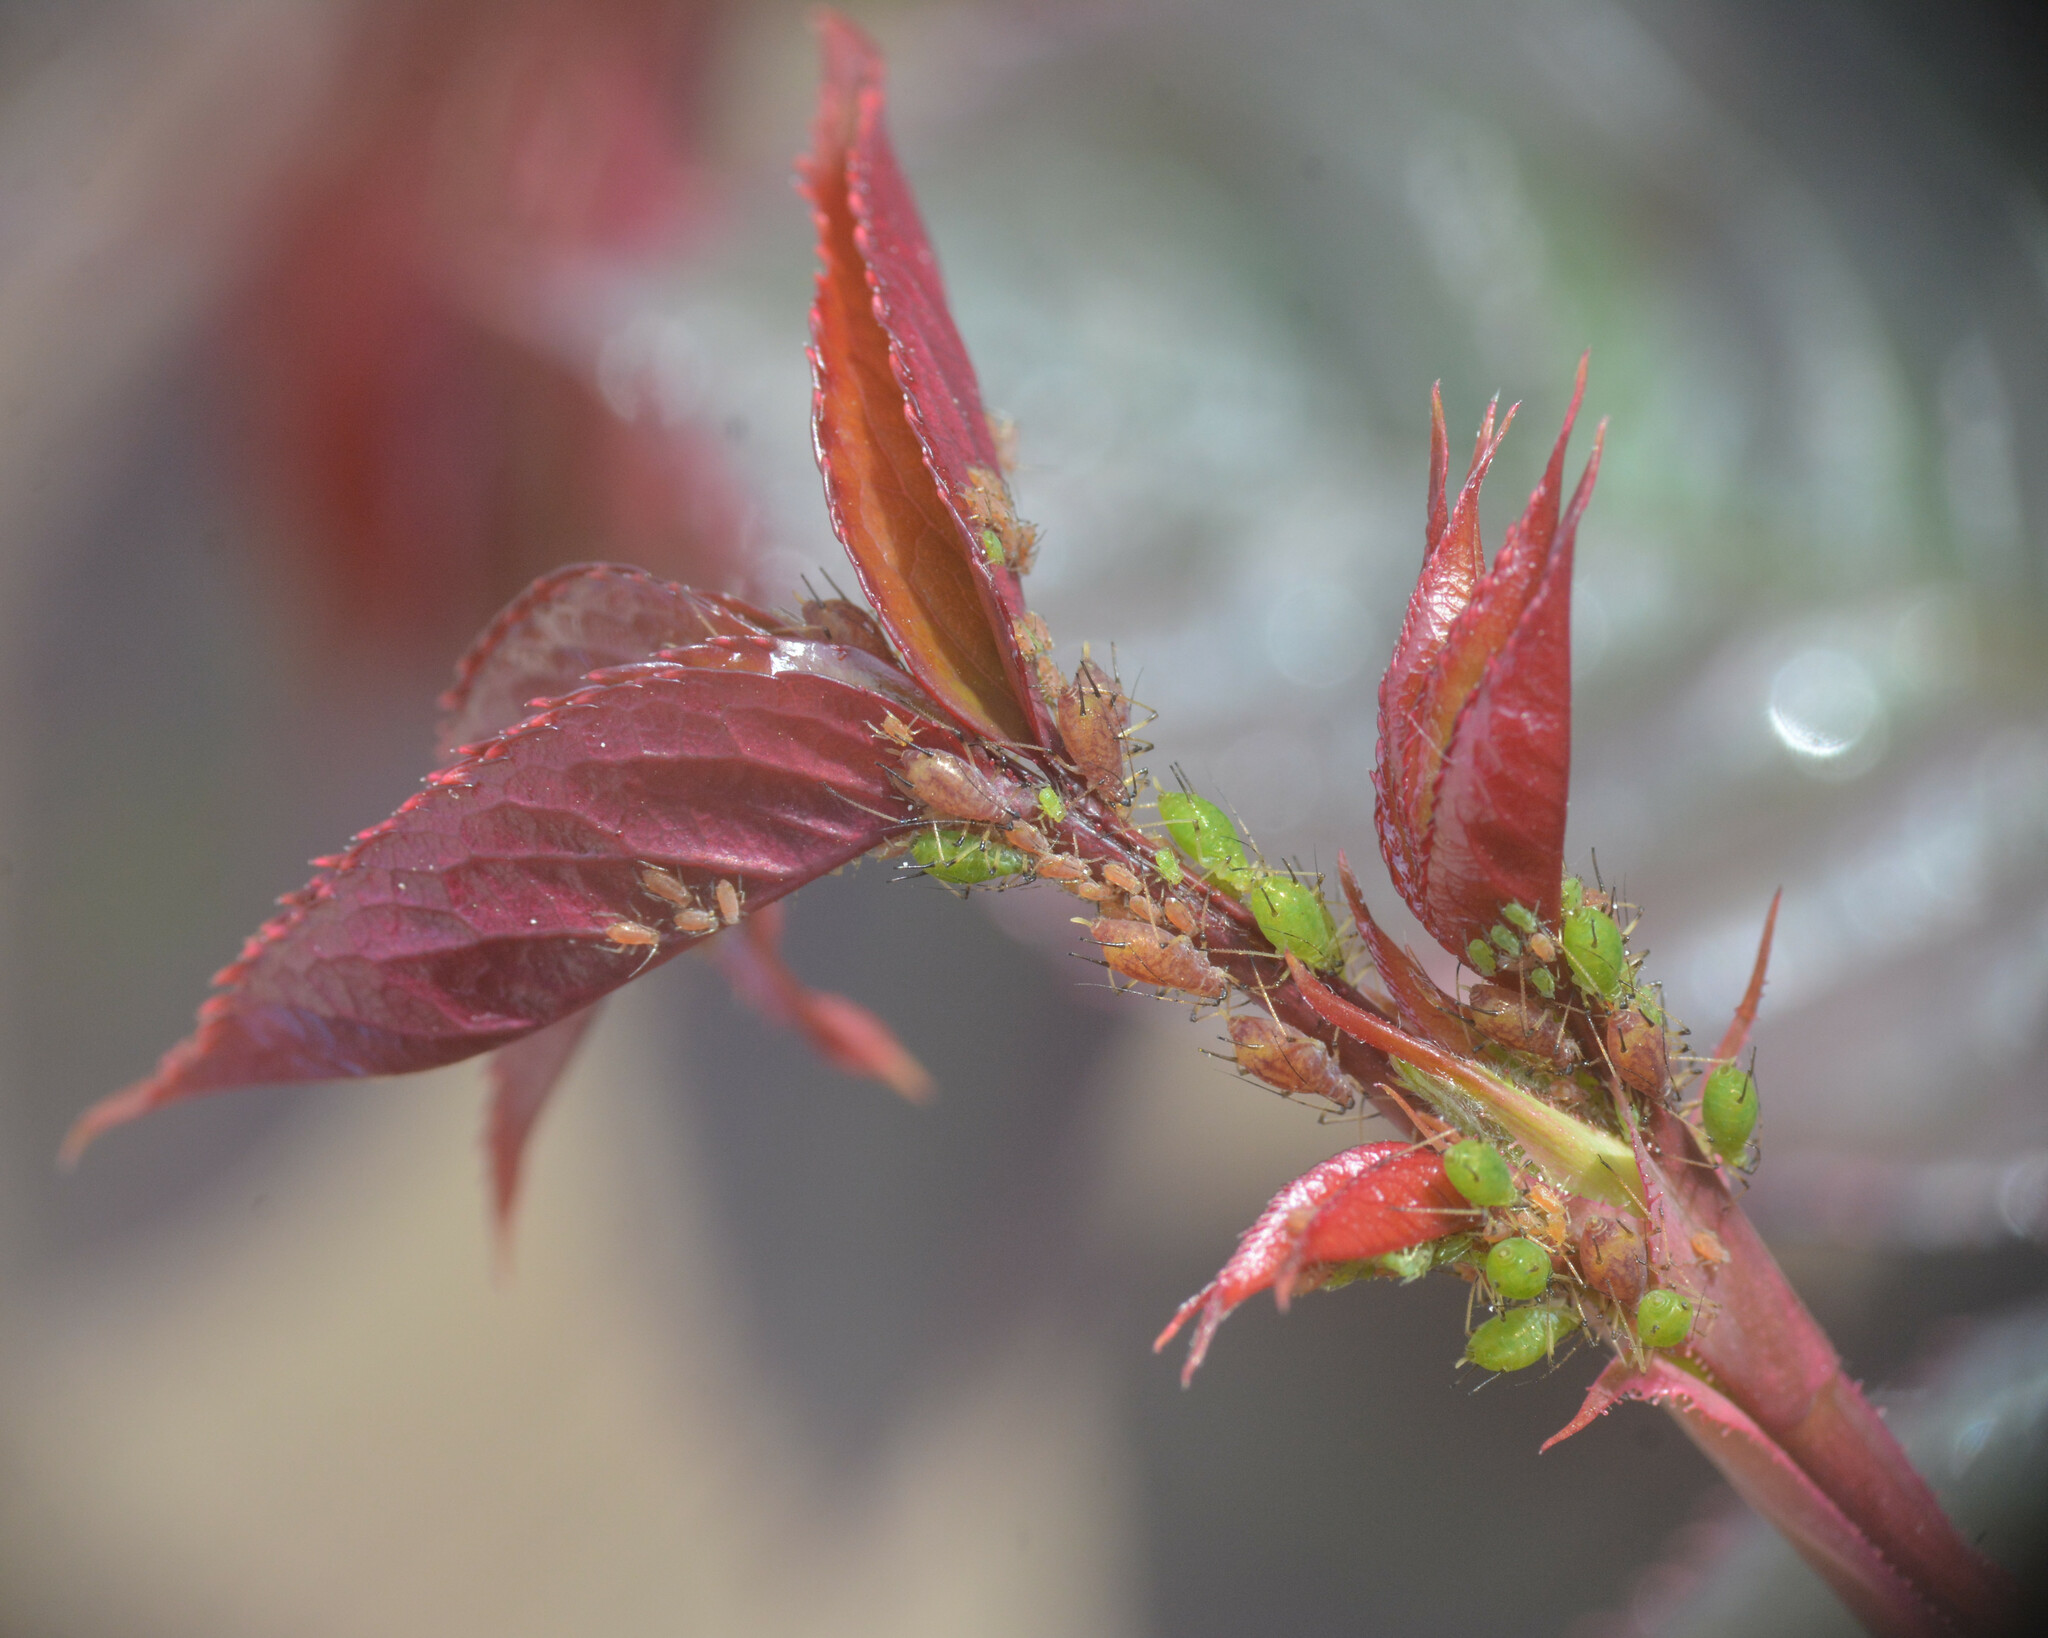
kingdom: Animalia
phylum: Arthropoda
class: Insecta
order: Hemiptera
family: Aphididae
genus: Macrosiphum
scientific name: Macrosiphum rosae
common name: Rose aphid
